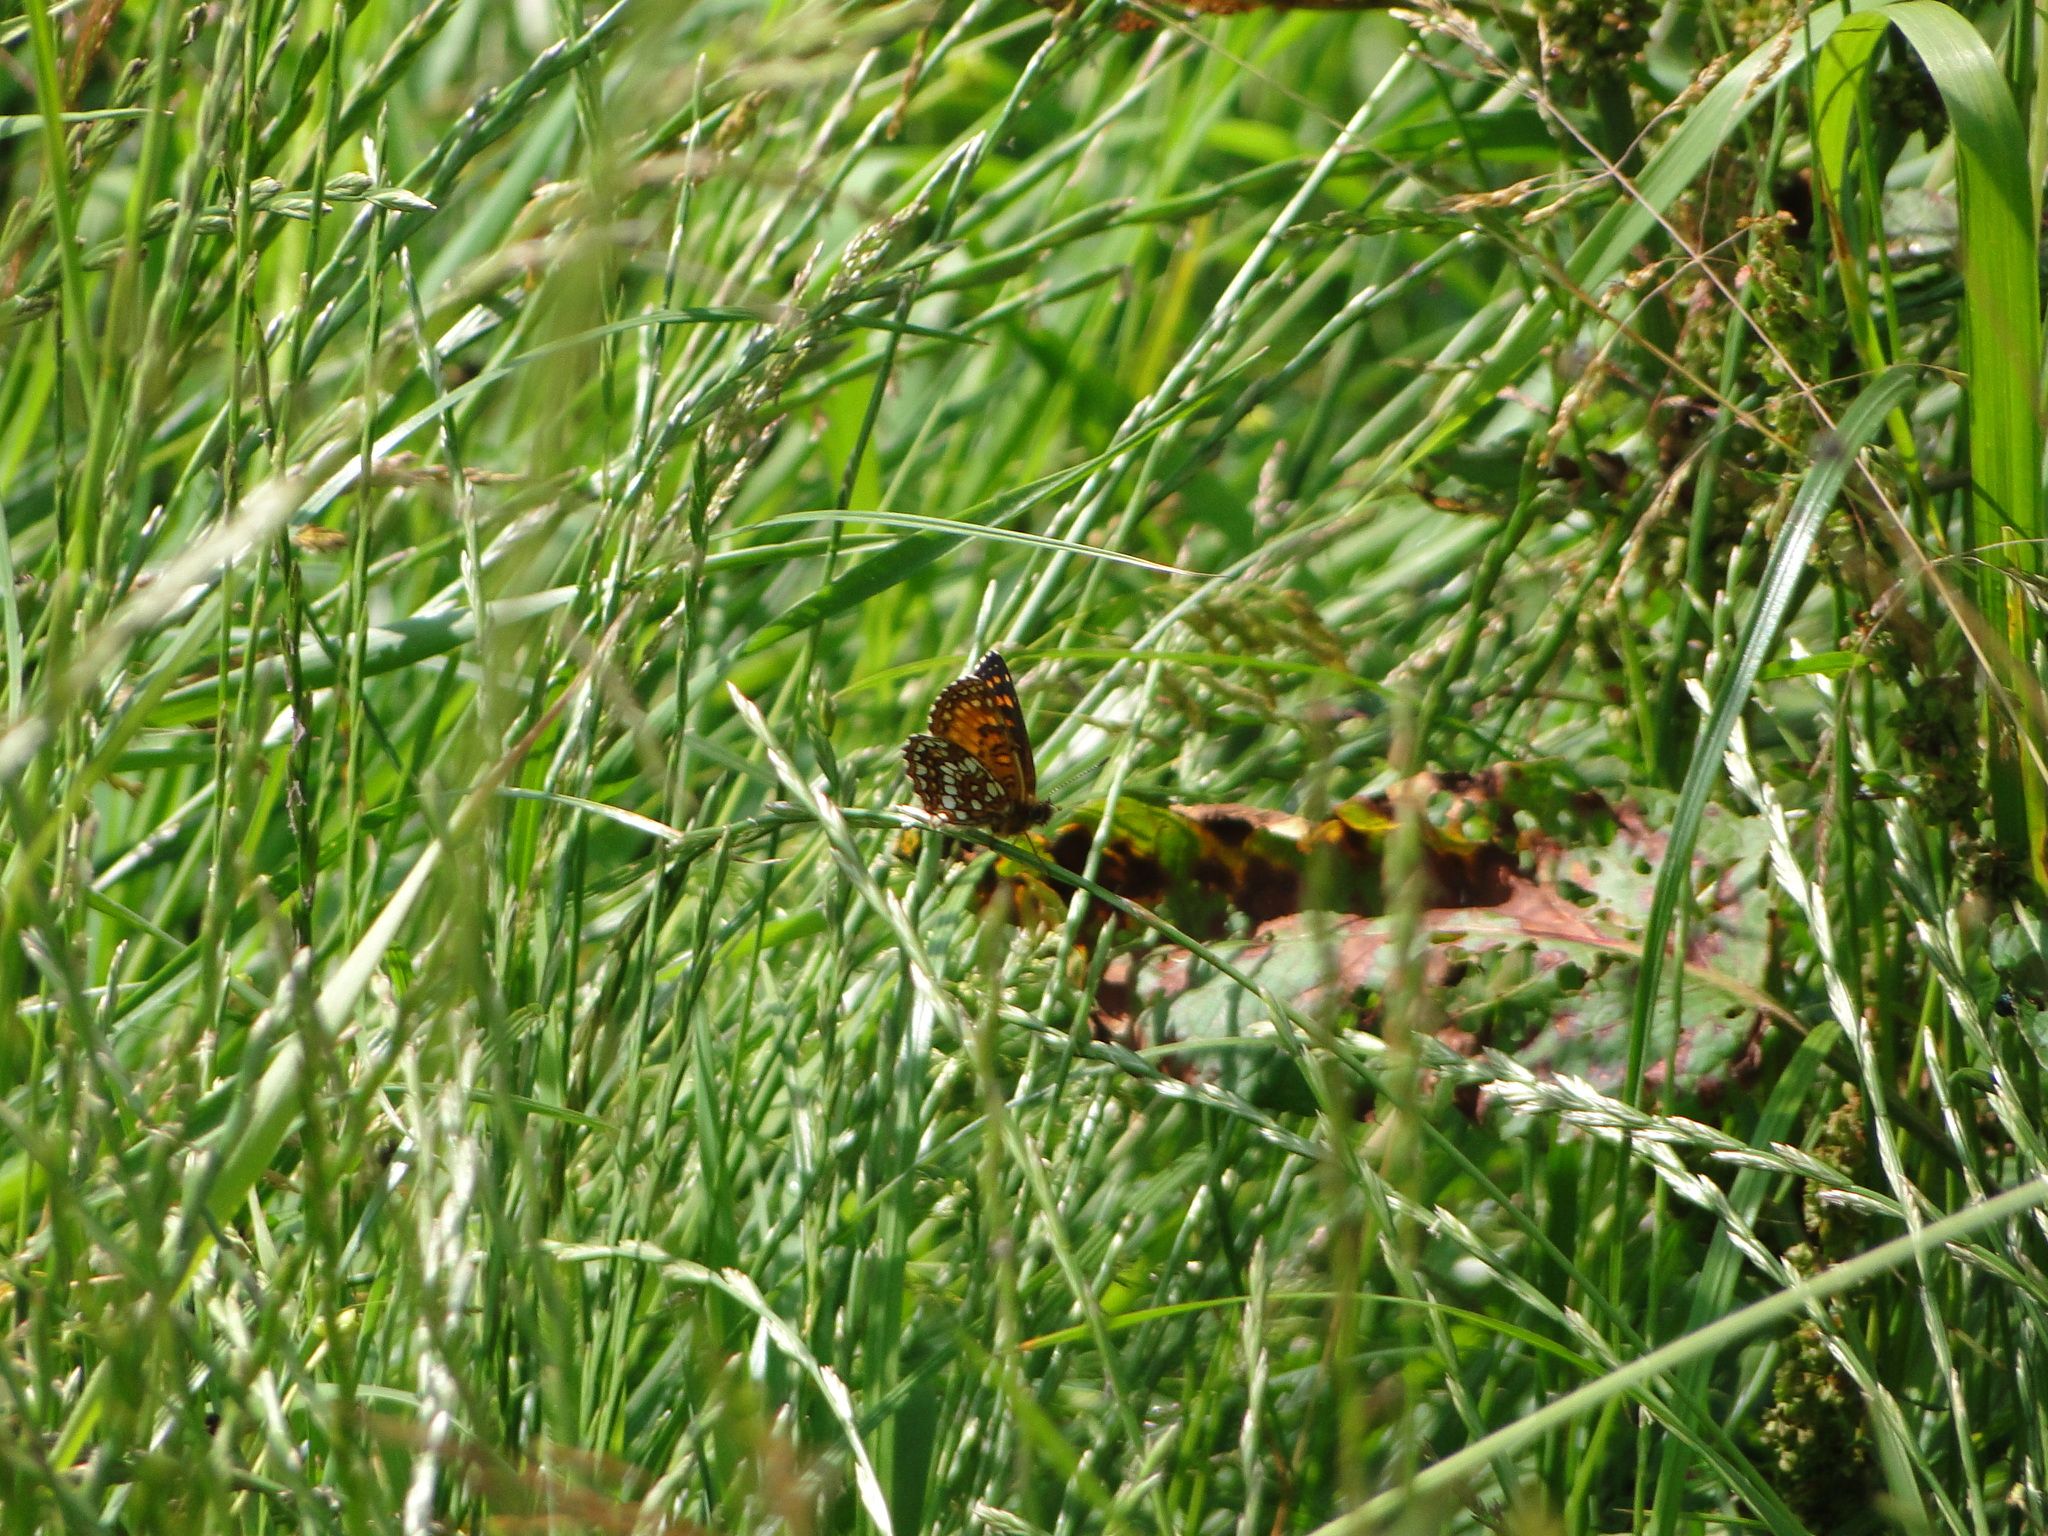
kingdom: Animalia
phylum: Arthropoda
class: Insecta
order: Lepidoptera
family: Nymphalidae
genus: Melitaea
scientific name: Melitaea diamina
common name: False heath fritillary
